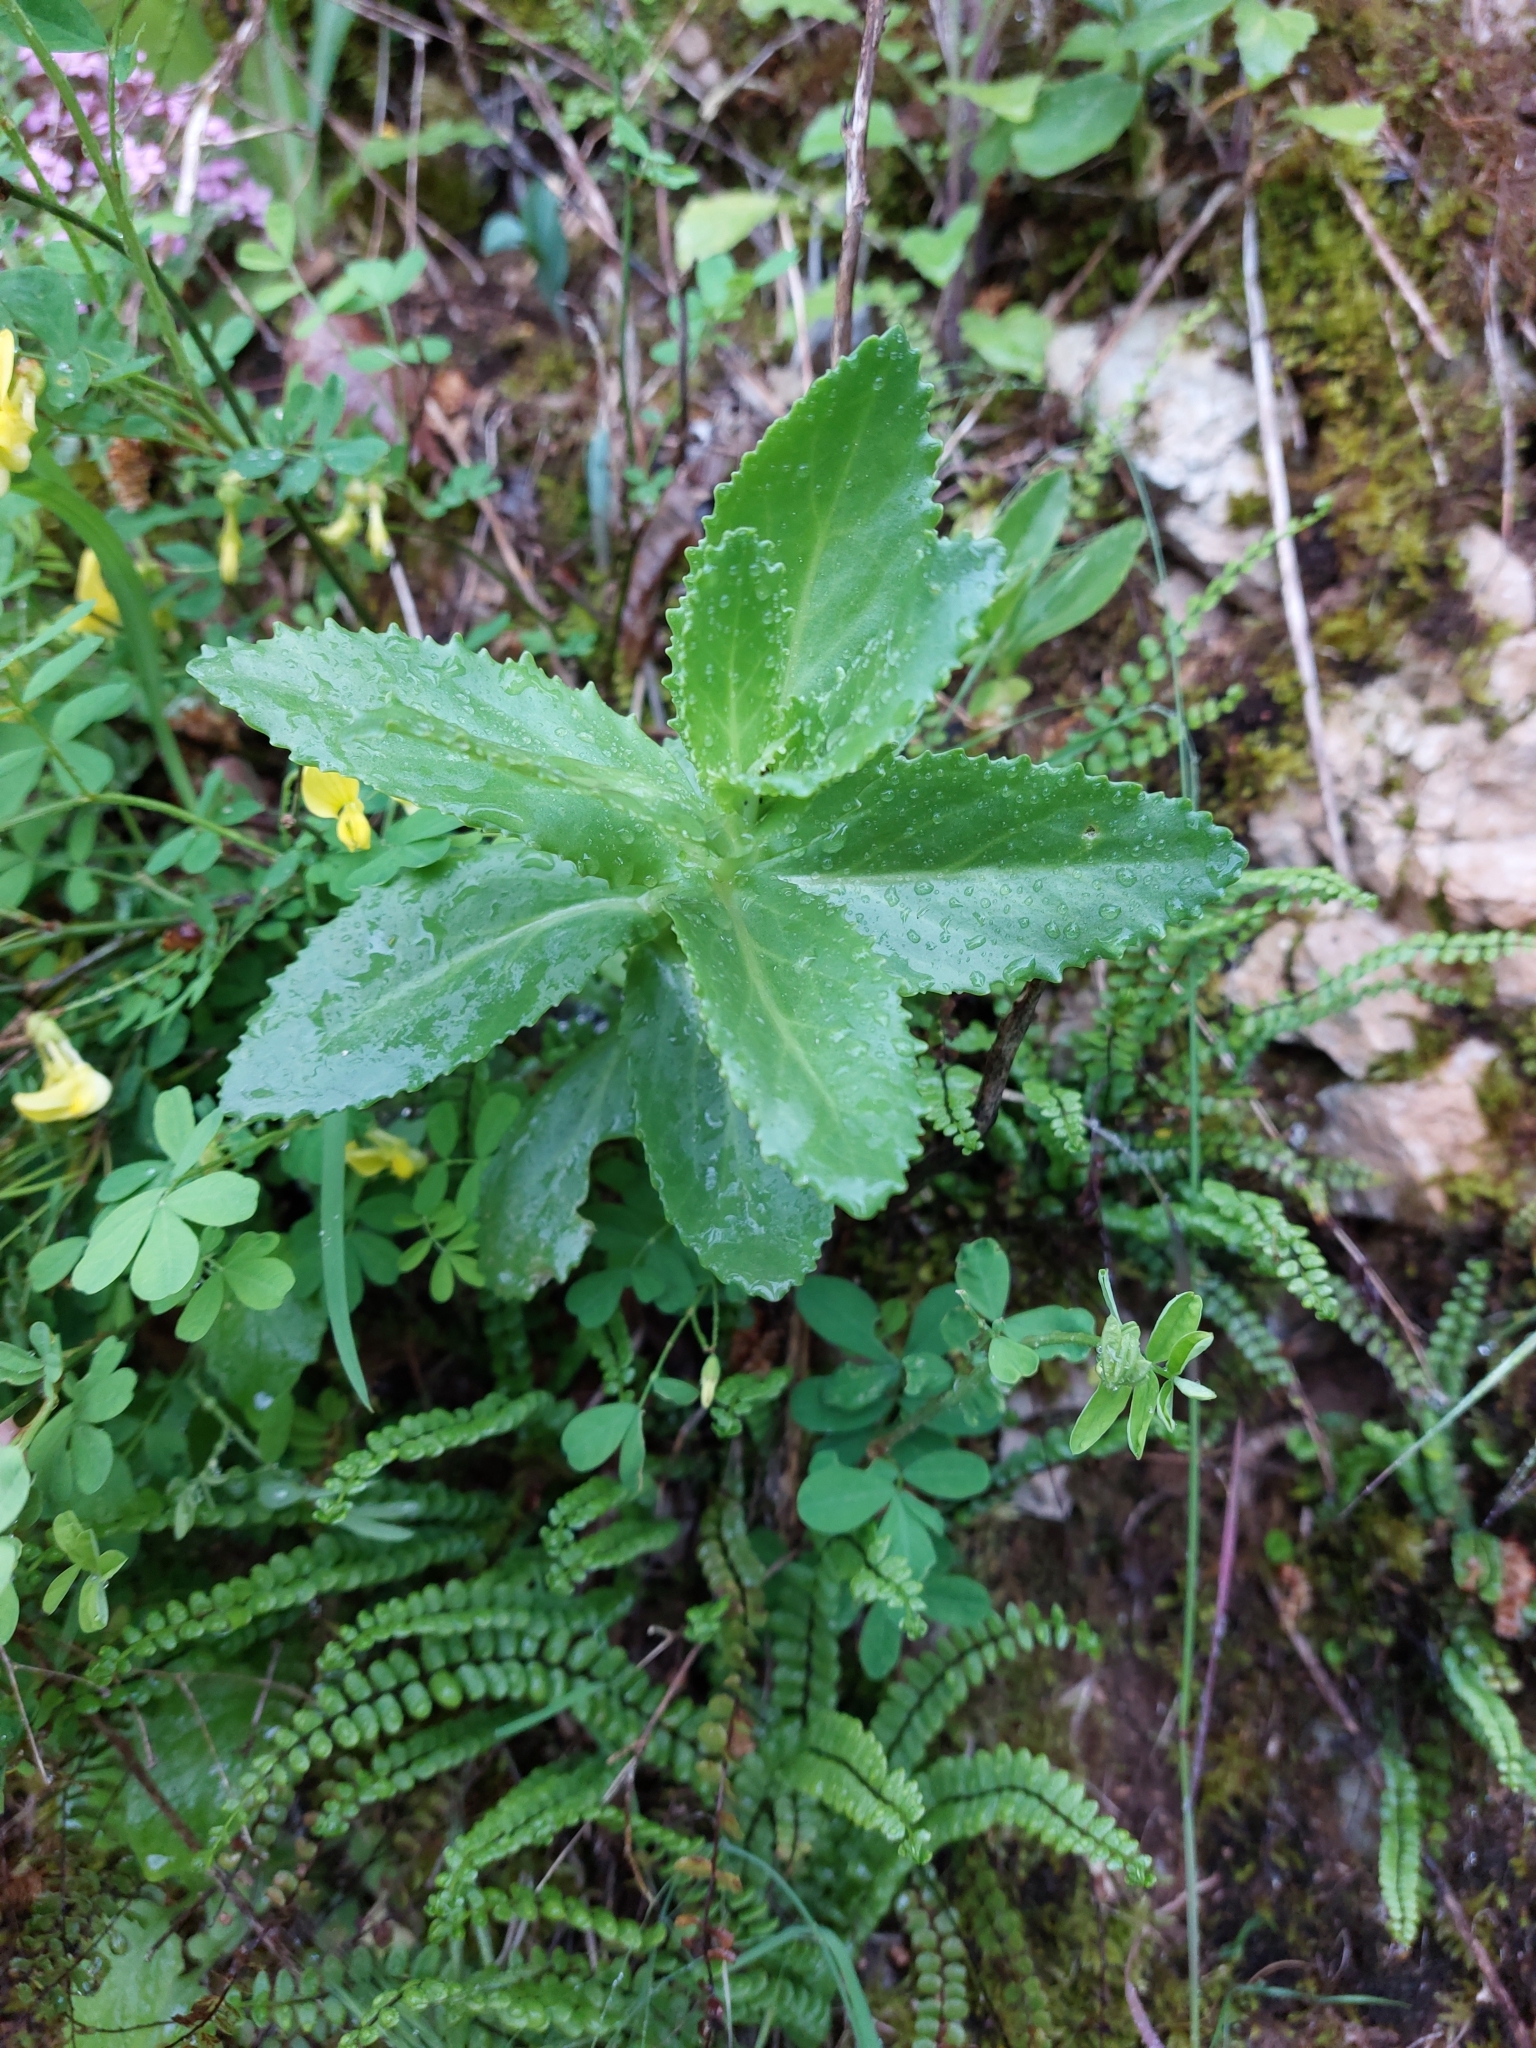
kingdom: Plantae
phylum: Tracheophyta
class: Magnoliopsida
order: Saxifragales
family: Crassulaceae
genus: Hylotelephium
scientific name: Hylotelephium maximum
